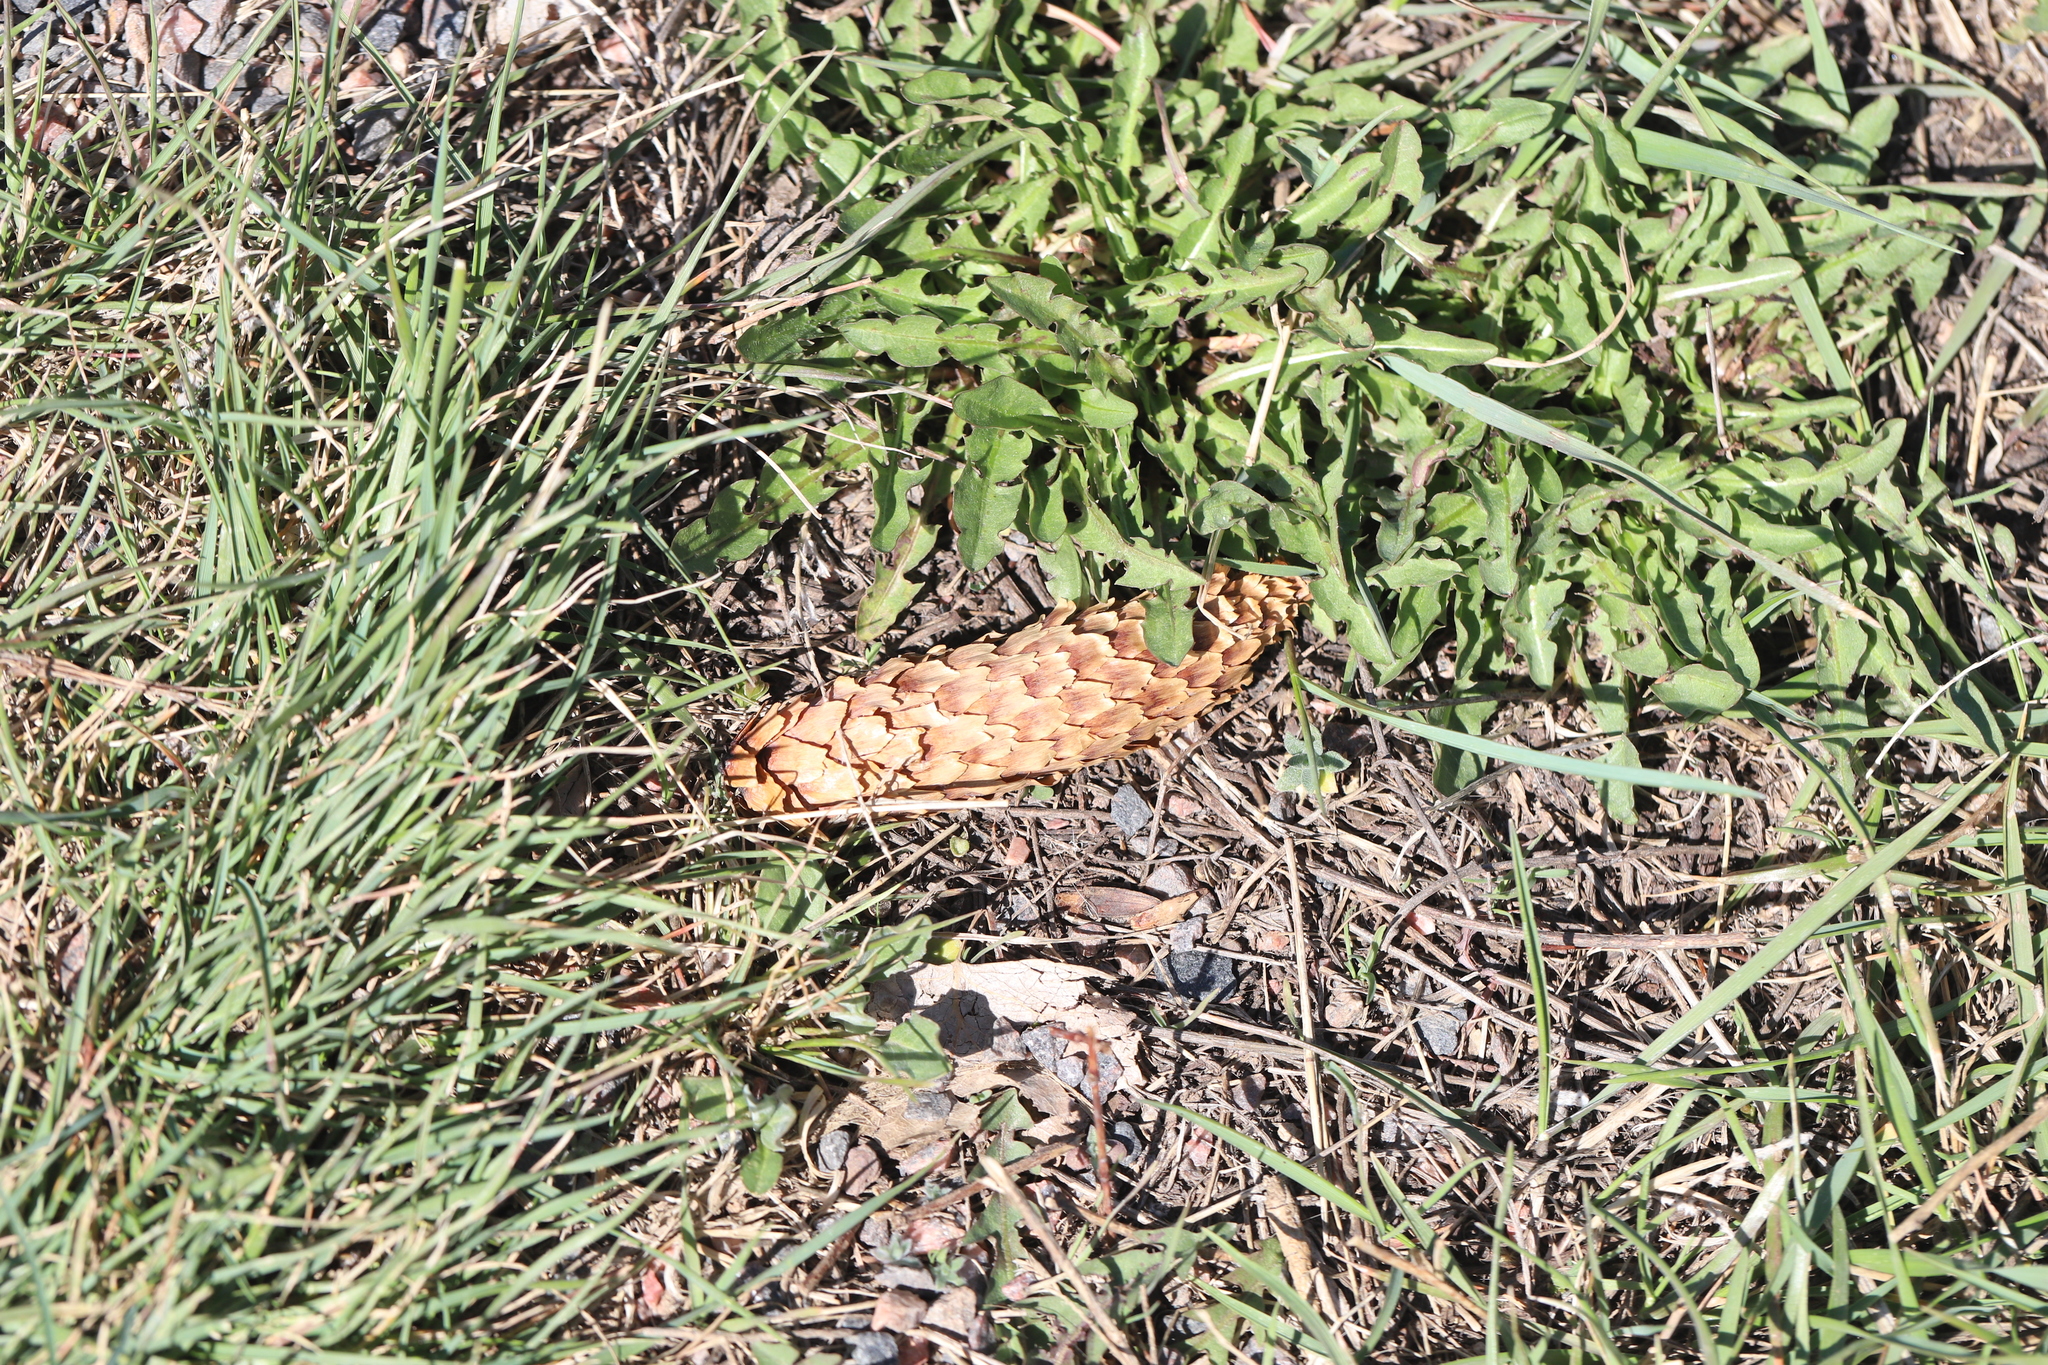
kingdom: Plantae
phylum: Tracheophyta
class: Pinopsida
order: Pinales
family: Pinaceae
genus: Picea
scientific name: Picea pungens
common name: Colorado spruce
